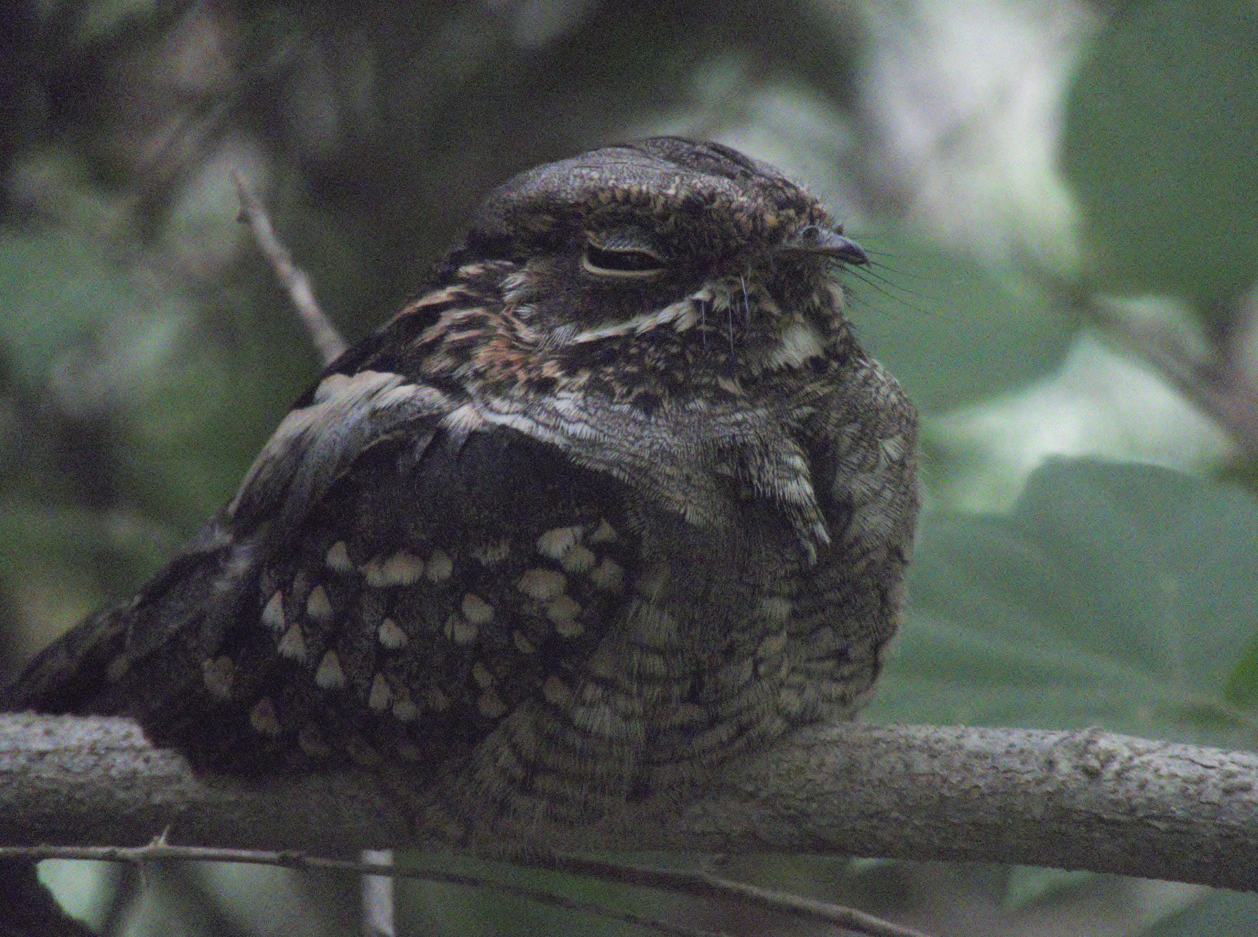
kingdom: Animalia
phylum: Chordata
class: Aves
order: Caprimulgiformes
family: Caprimulgidae
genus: Setopagis
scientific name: Setopagis parvula
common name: Little nightjar
